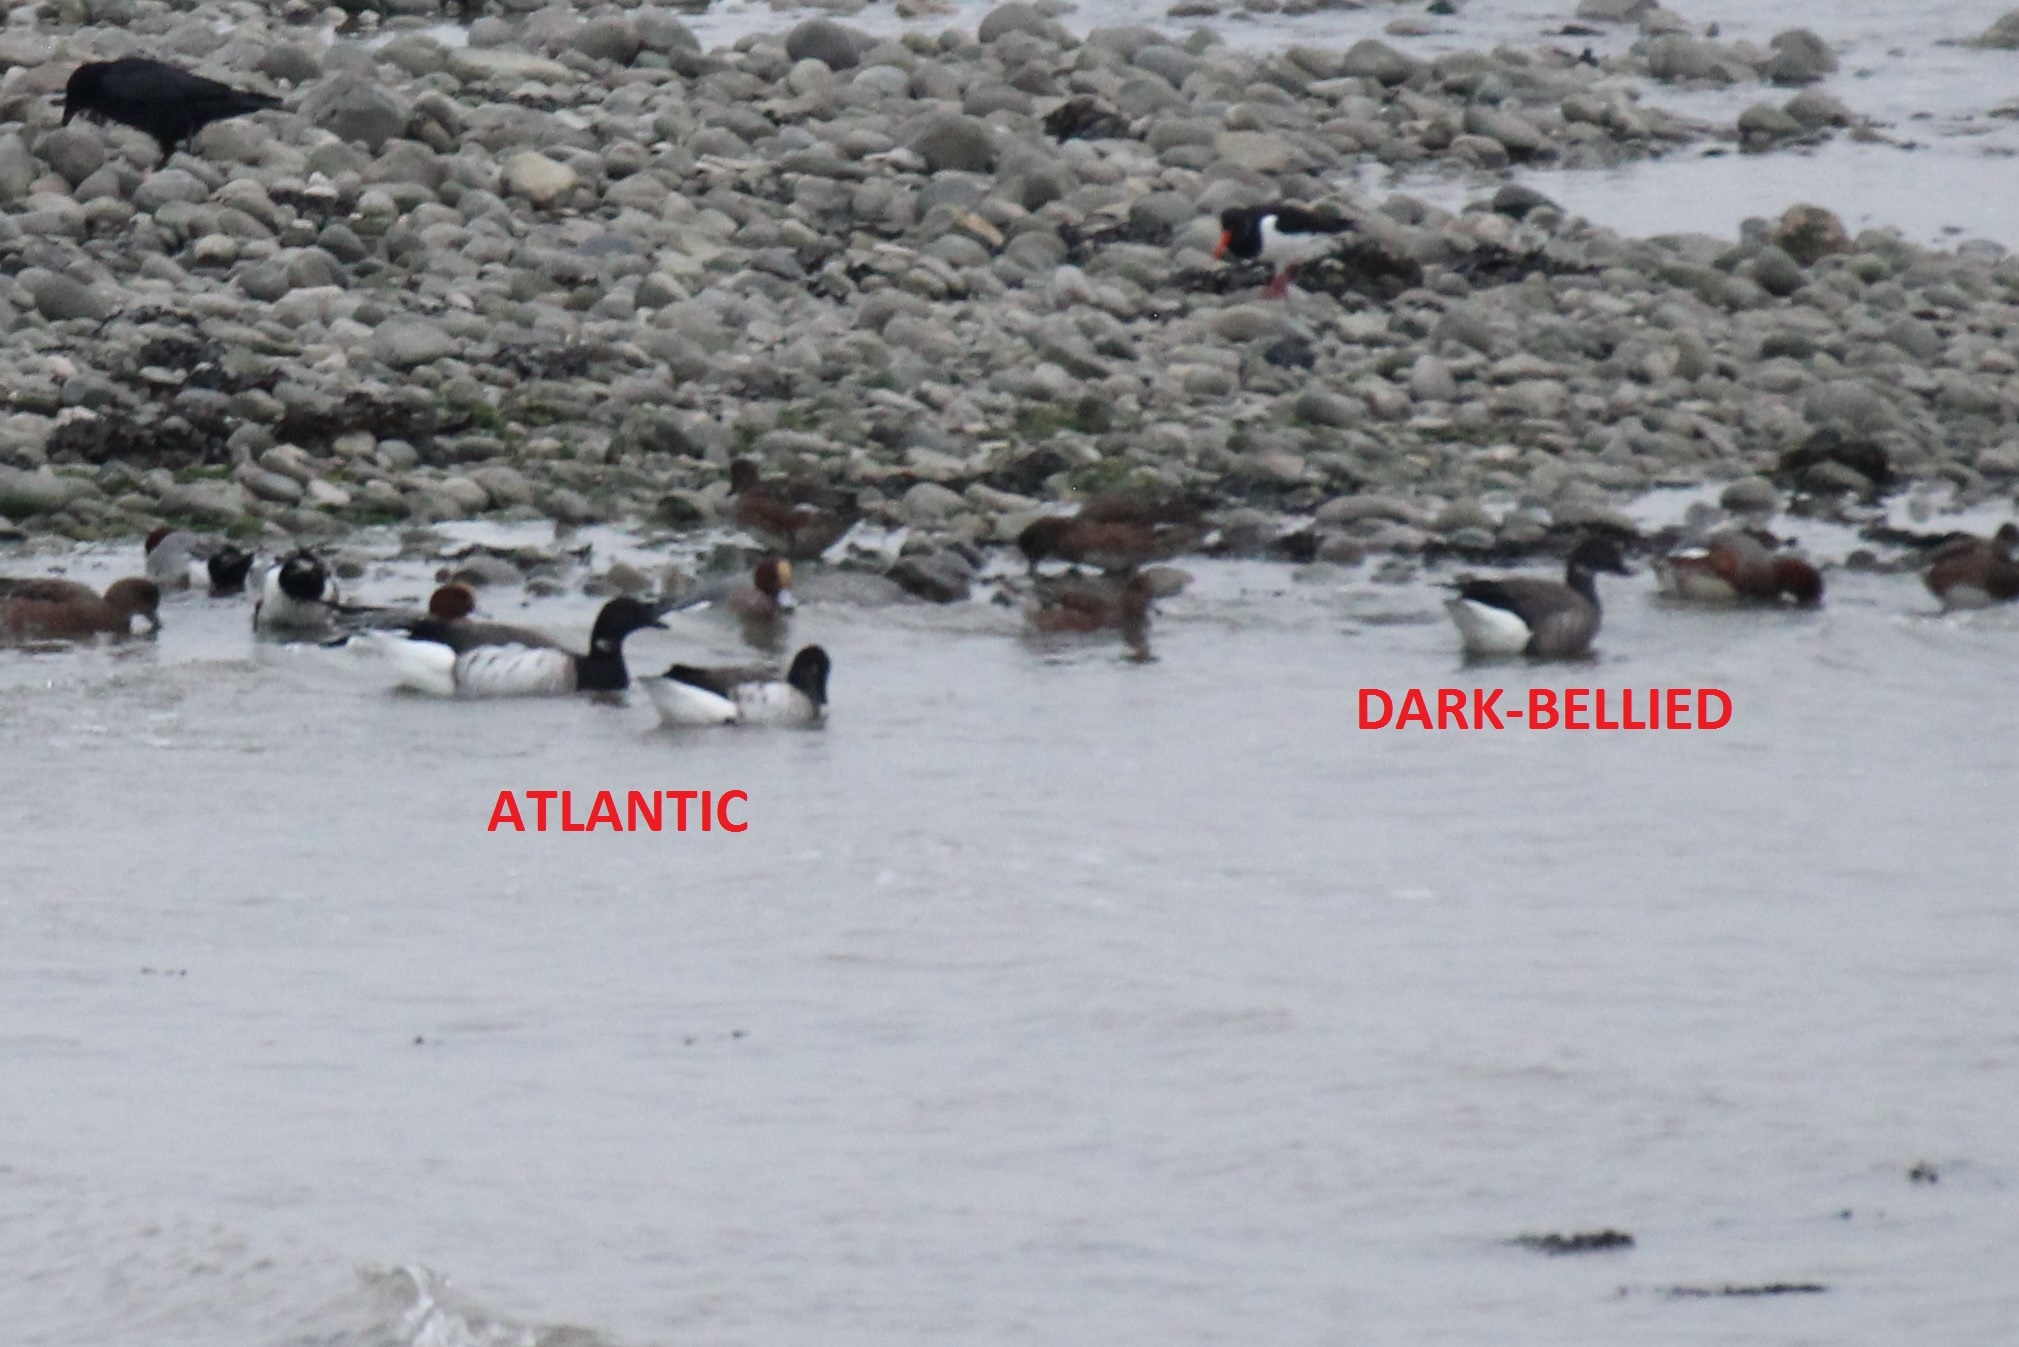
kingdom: Animalia
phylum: Chordata
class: Aves
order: Anseriformes
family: Anatidae
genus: Branta
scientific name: Branta bernicla
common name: Brant goose
